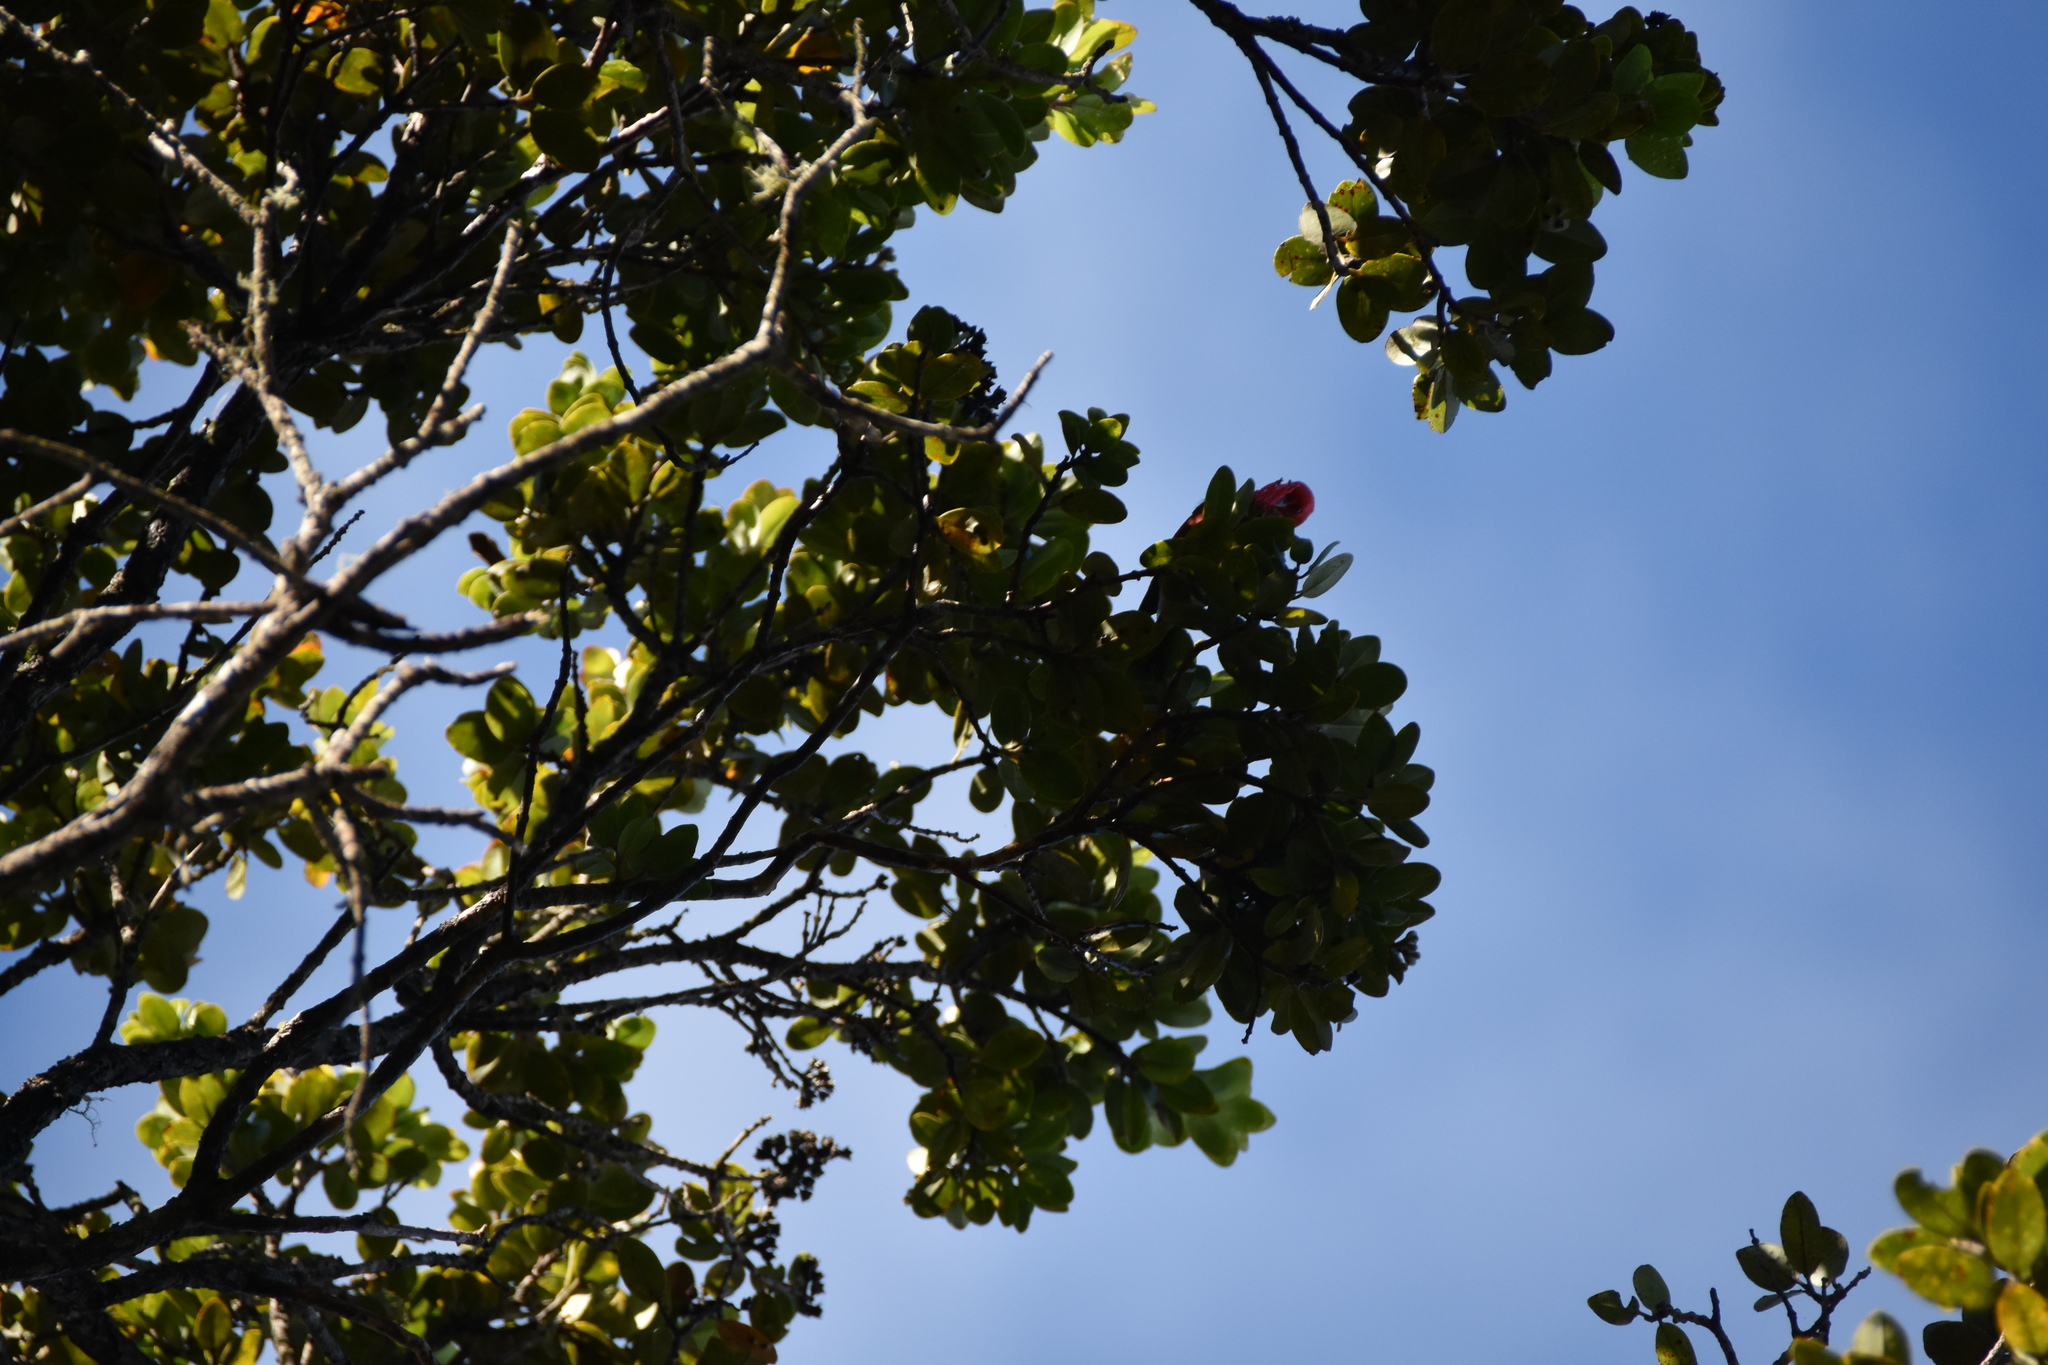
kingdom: Animalia
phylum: Chordata
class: Aves
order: Passeriformes
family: Fringillidae
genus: Himatione
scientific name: Himatione sanguinea
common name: Apapane
